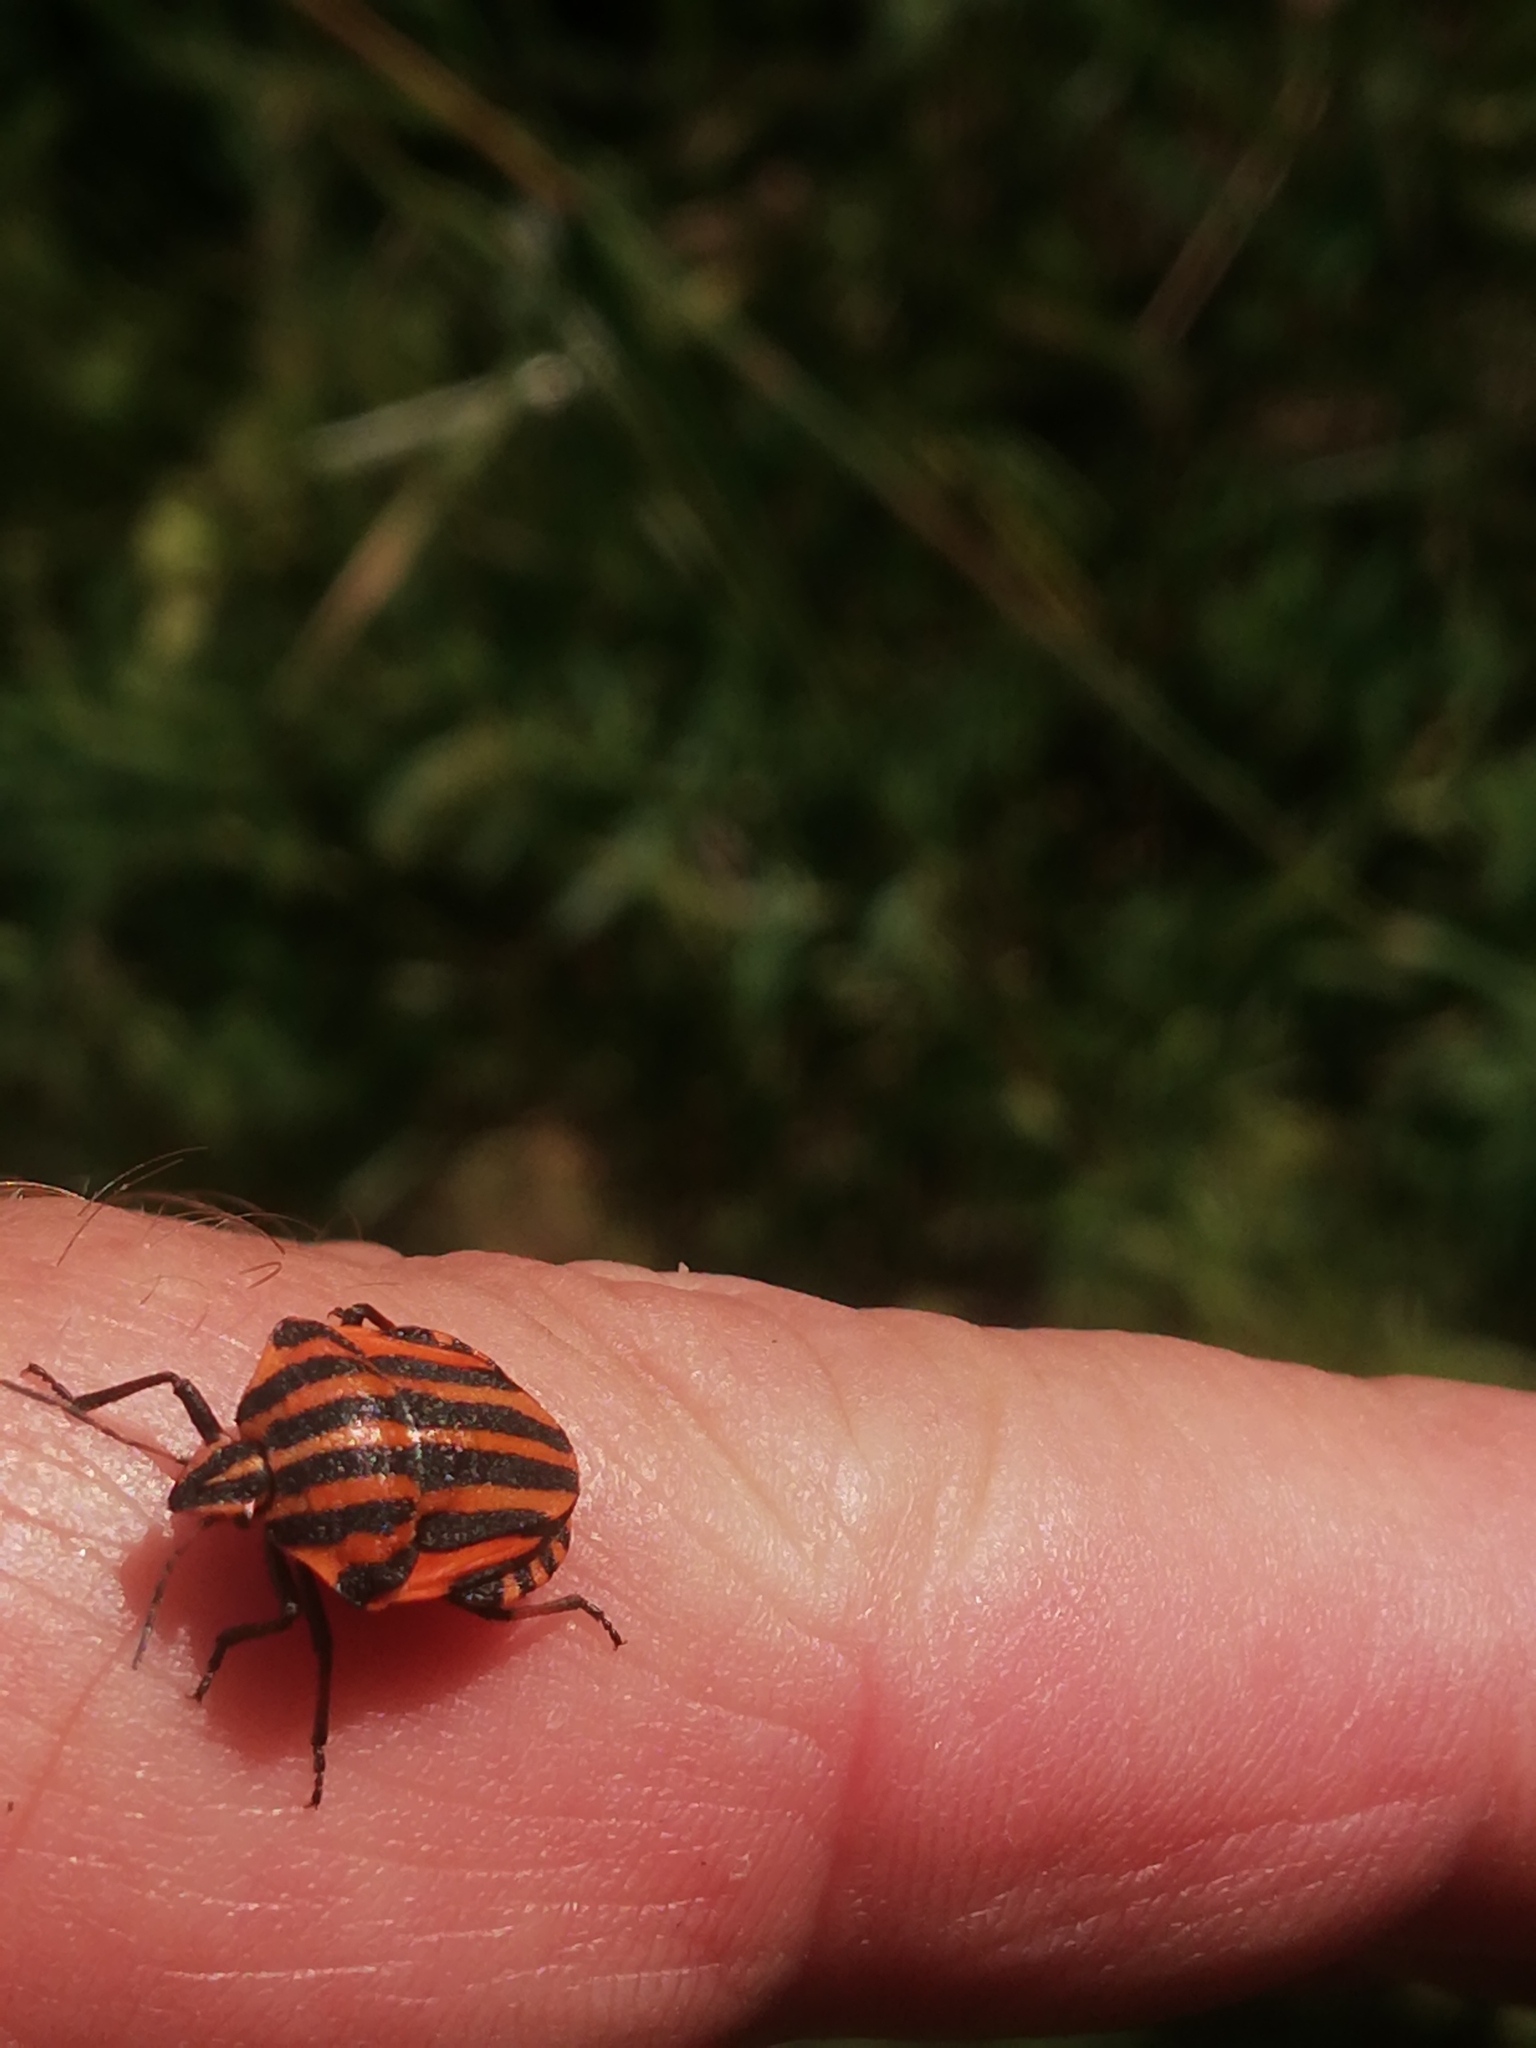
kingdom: Animalia
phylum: Arthropoda
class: Insecta
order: Hemiptera
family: Pentatomidae
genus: Graphosoma
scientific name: Graphosoma italicum
